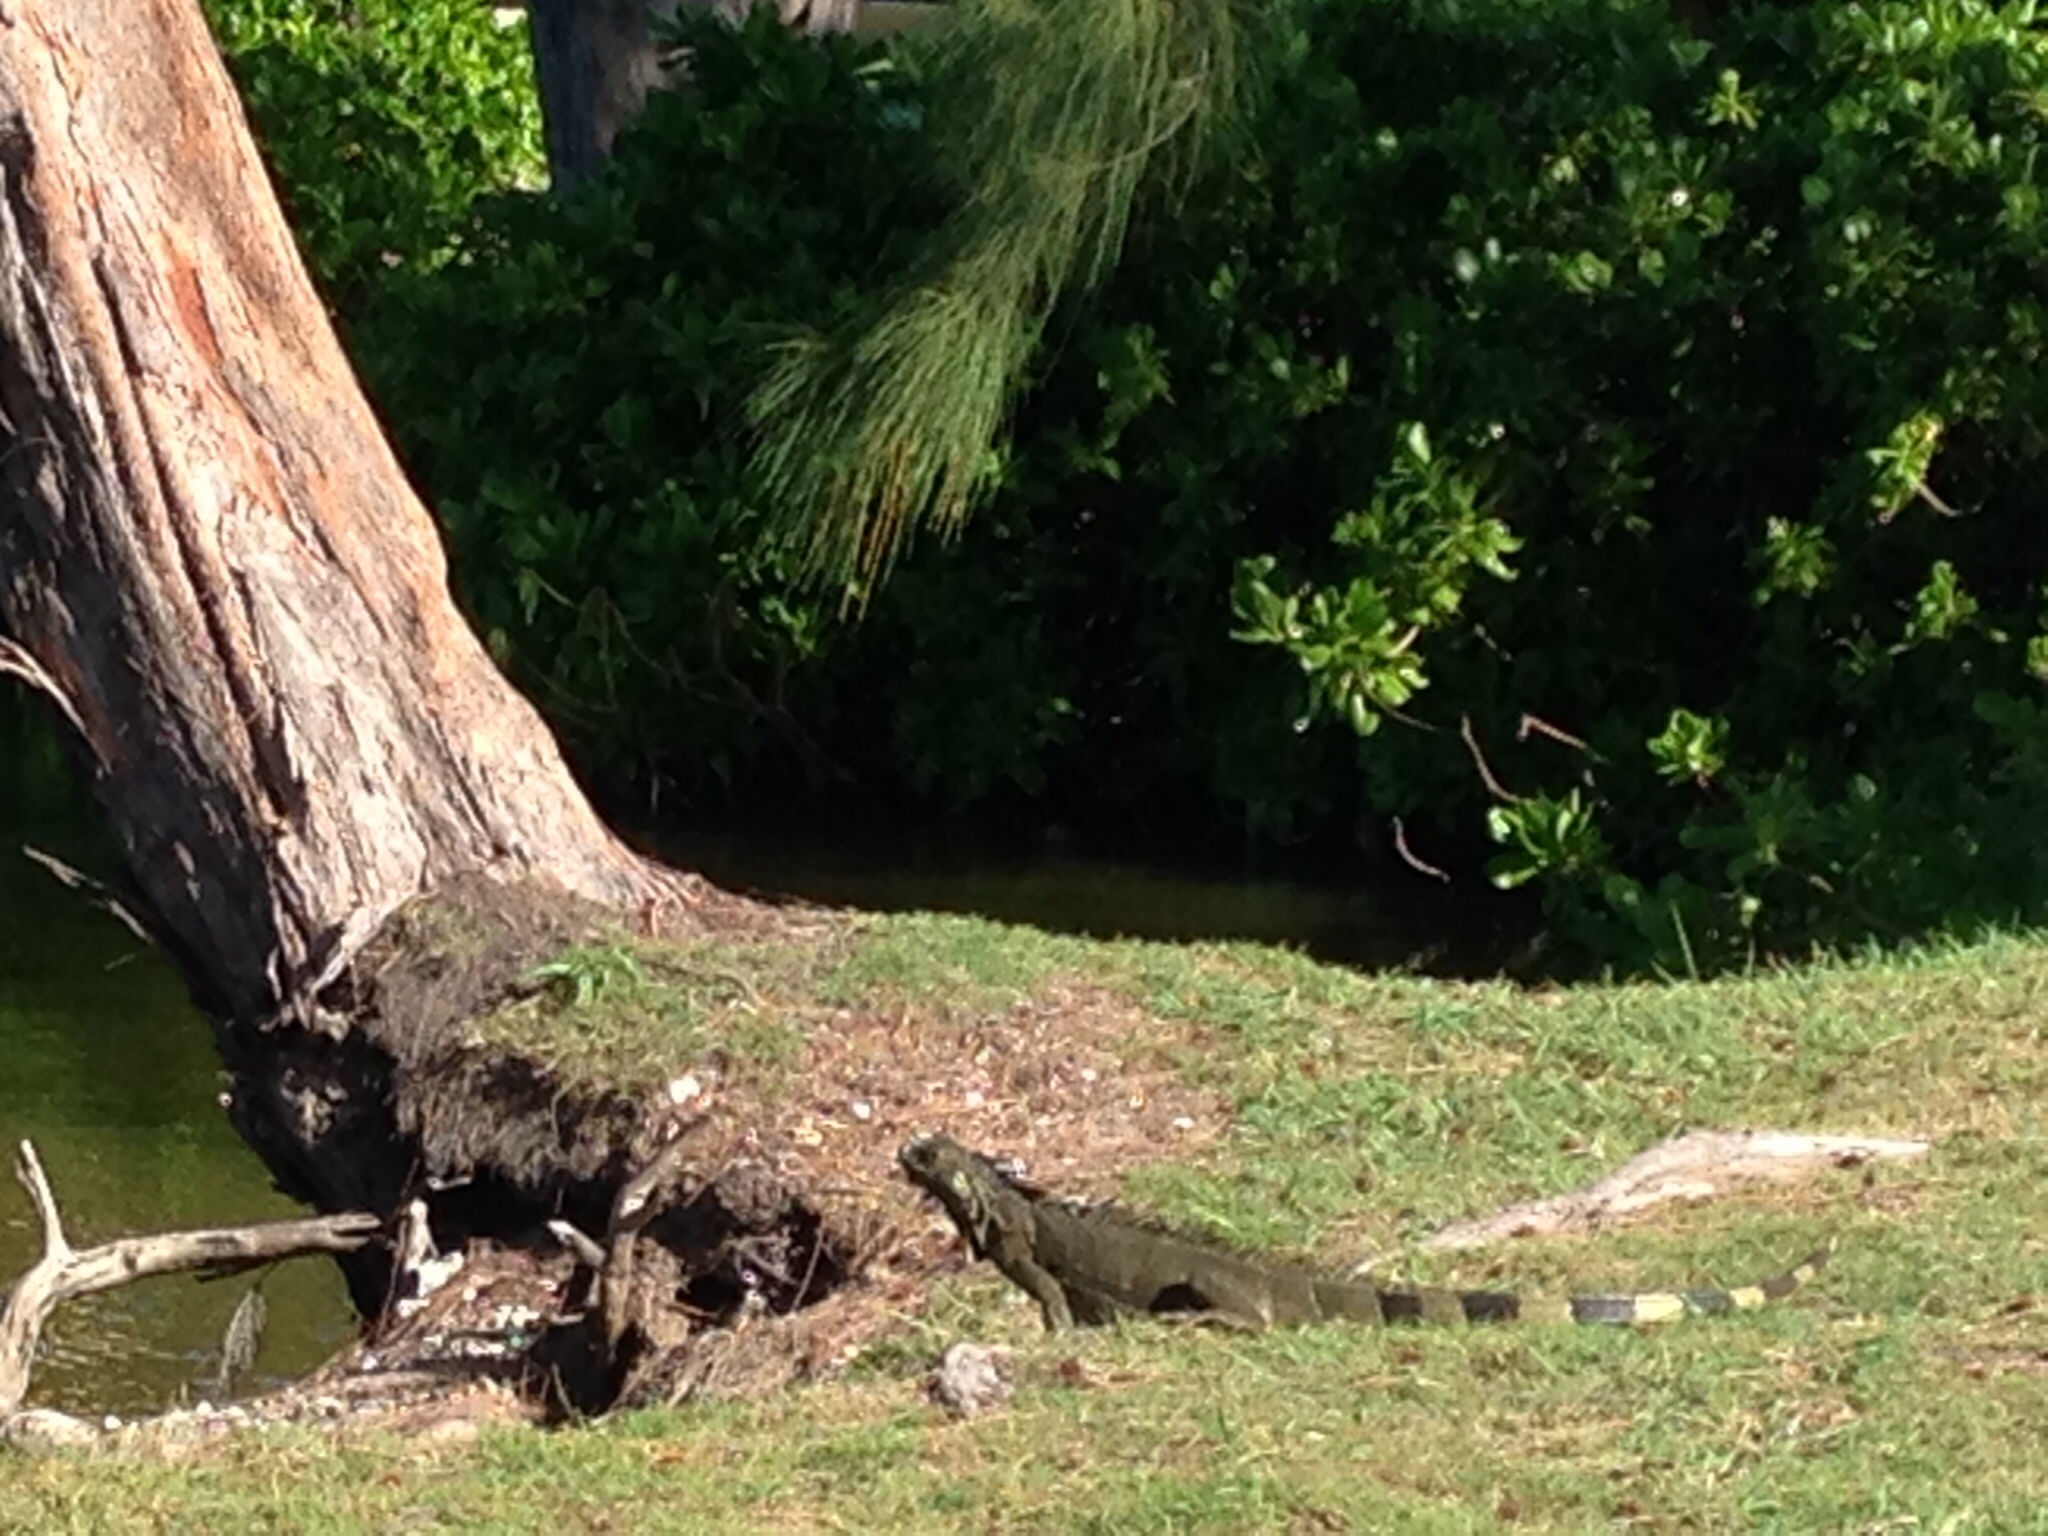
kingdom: Animalia
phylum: Chordata
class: Squamata
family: Iguanidae
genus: Iguana
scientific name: Iguana iguana
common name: Green iguana
